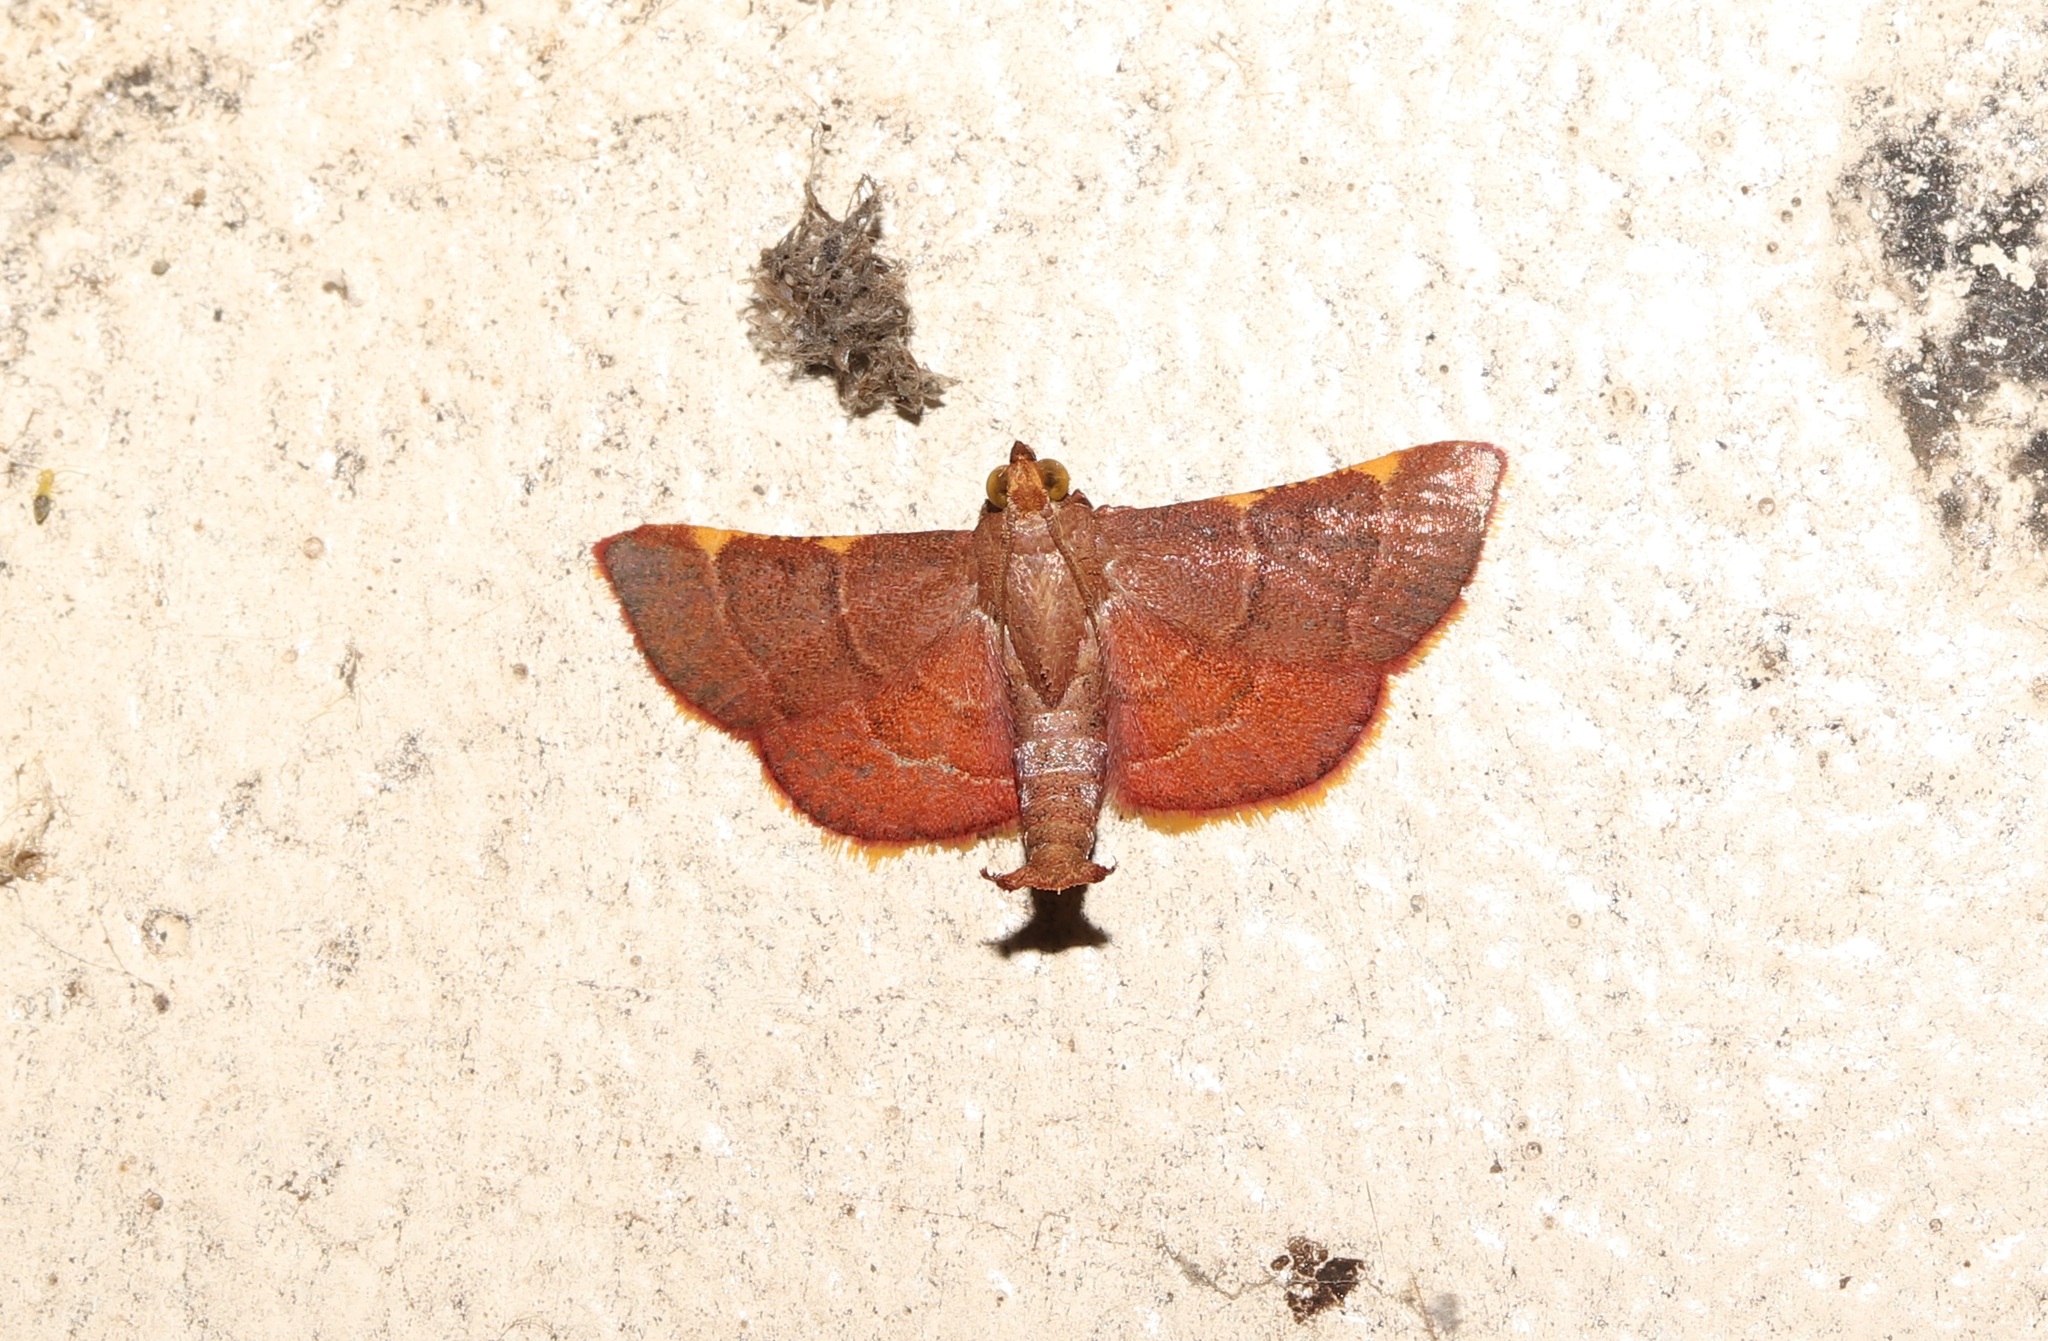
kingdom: Animalia
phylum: Arthropoda
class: Insecta
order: Lepidoptera
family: Pyralidae
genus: Hypsopygia
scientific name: Hypsopygia pelasgalis
